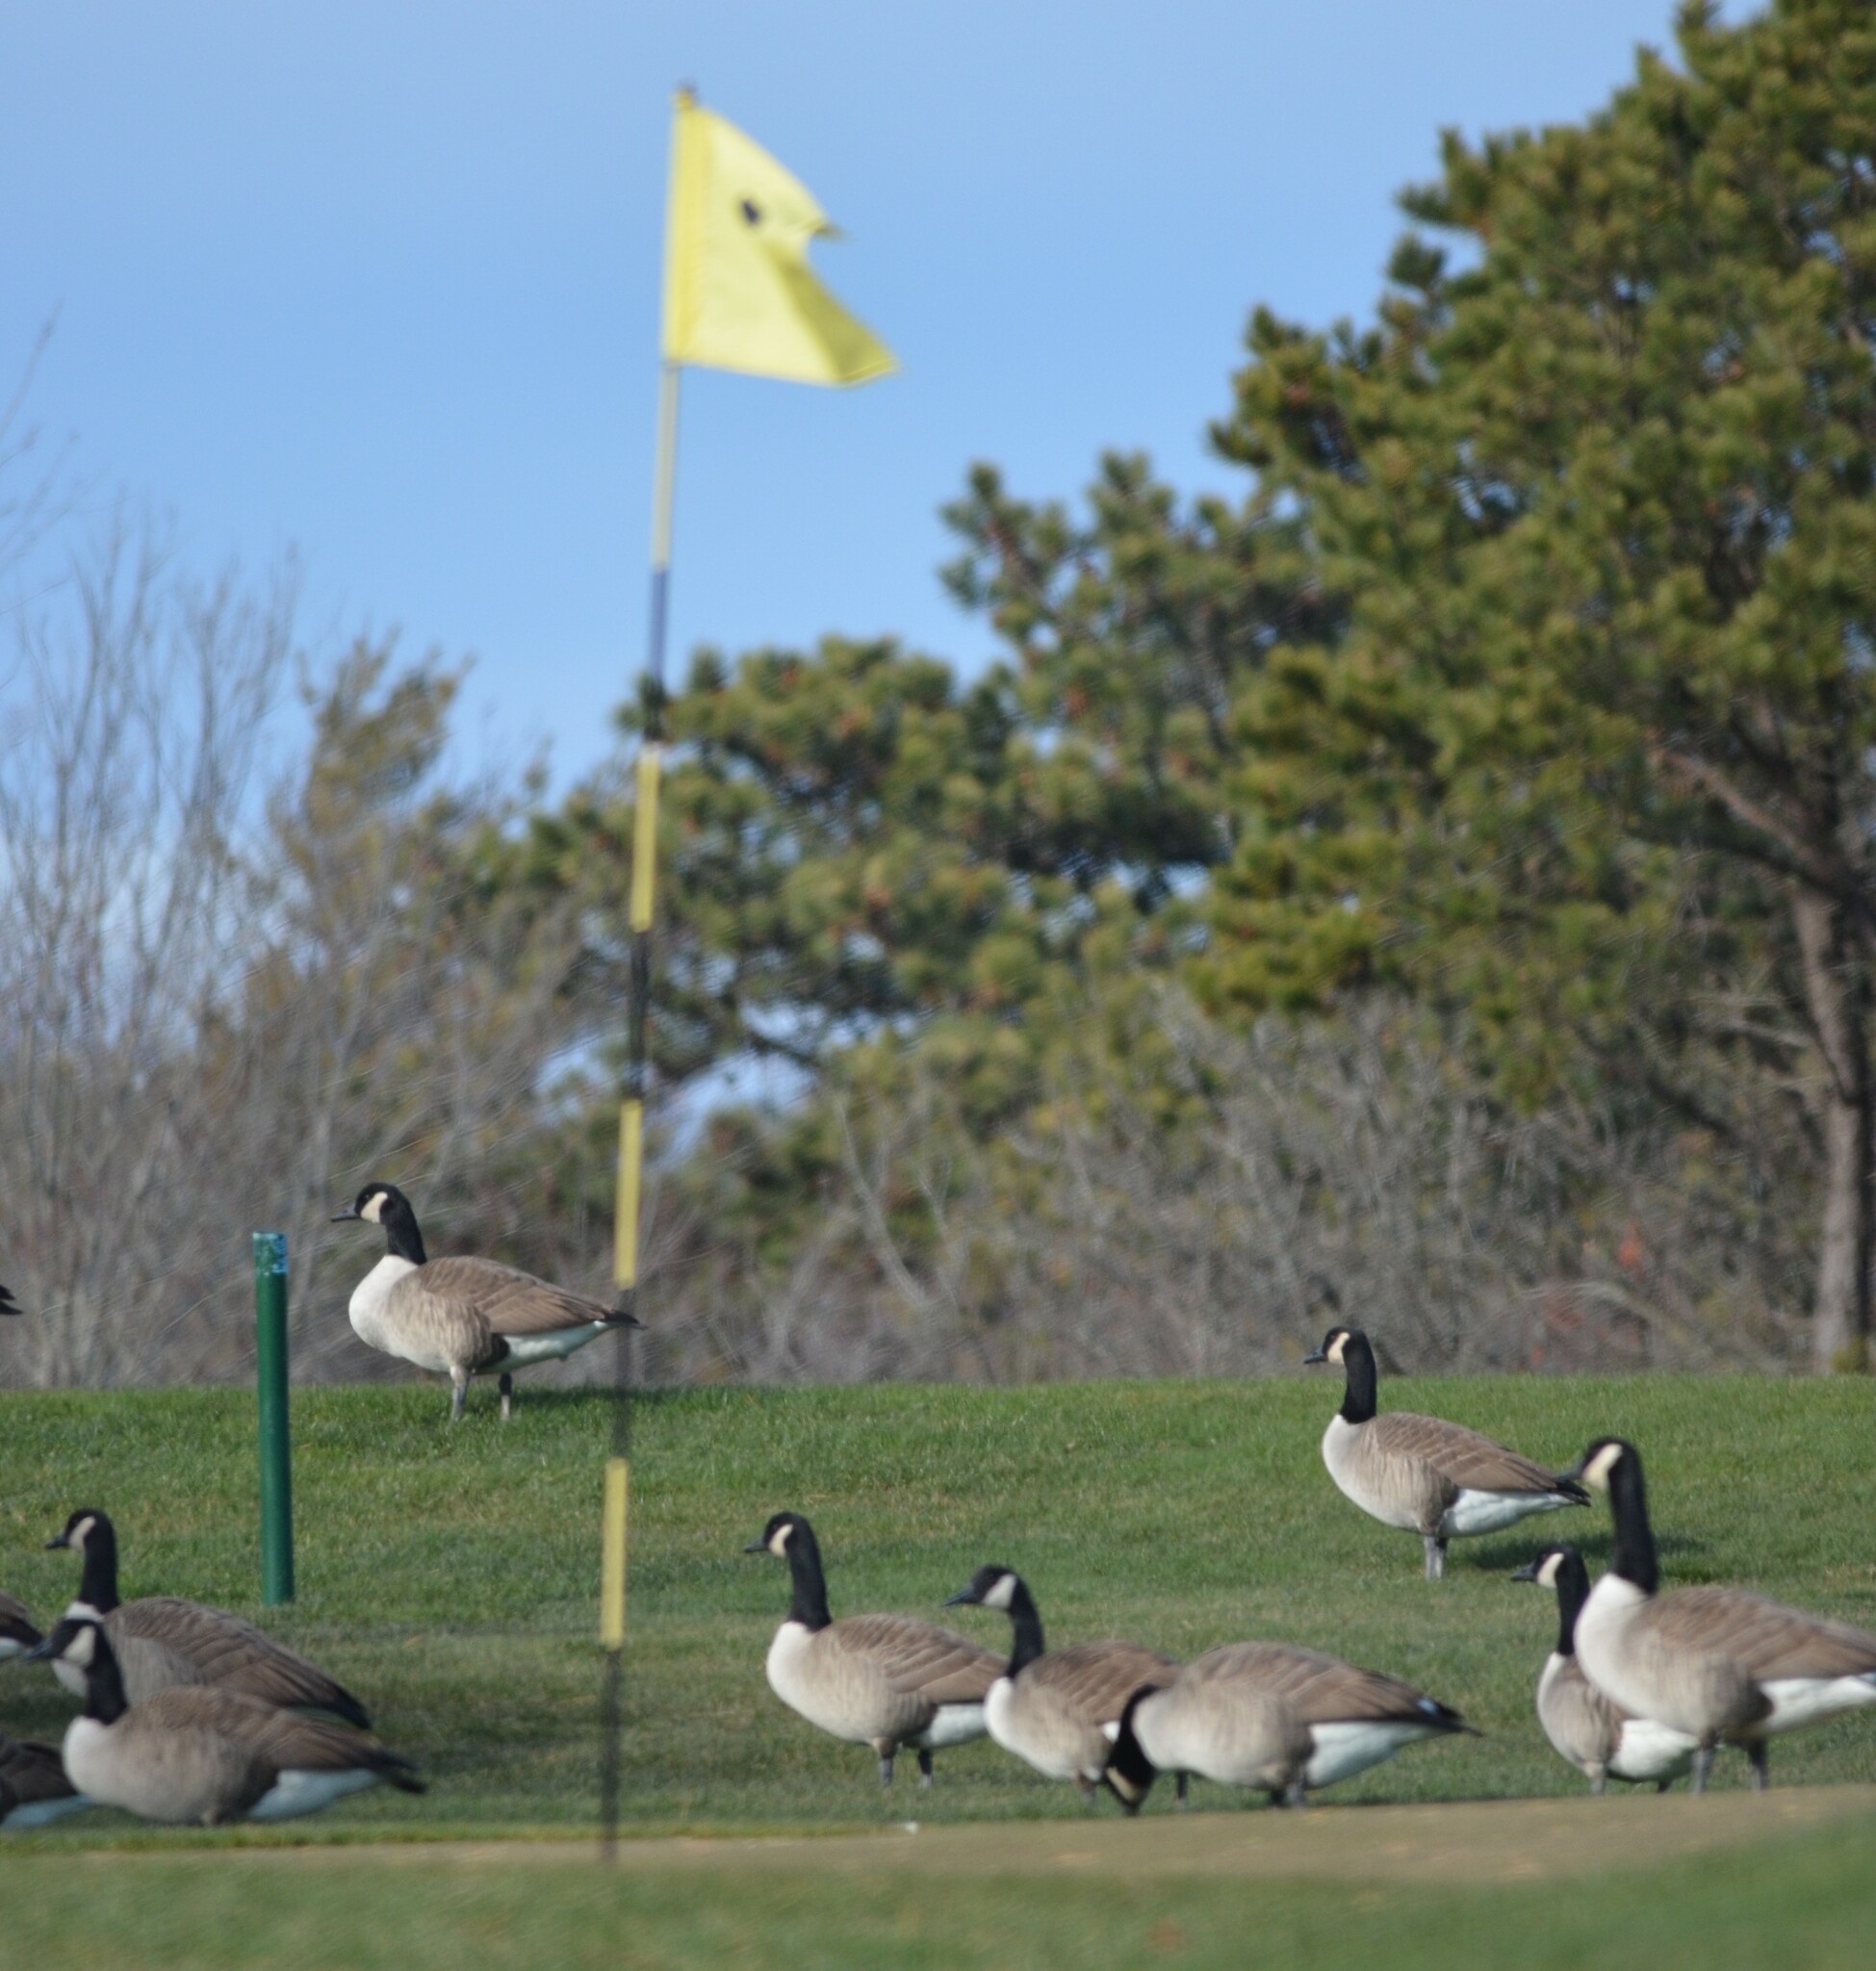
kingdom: Animalia
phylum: Chordata
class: Aves
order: Anseriformes
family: Anatidae
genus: Branta
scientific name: Branta canadensis
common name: Canada goose
